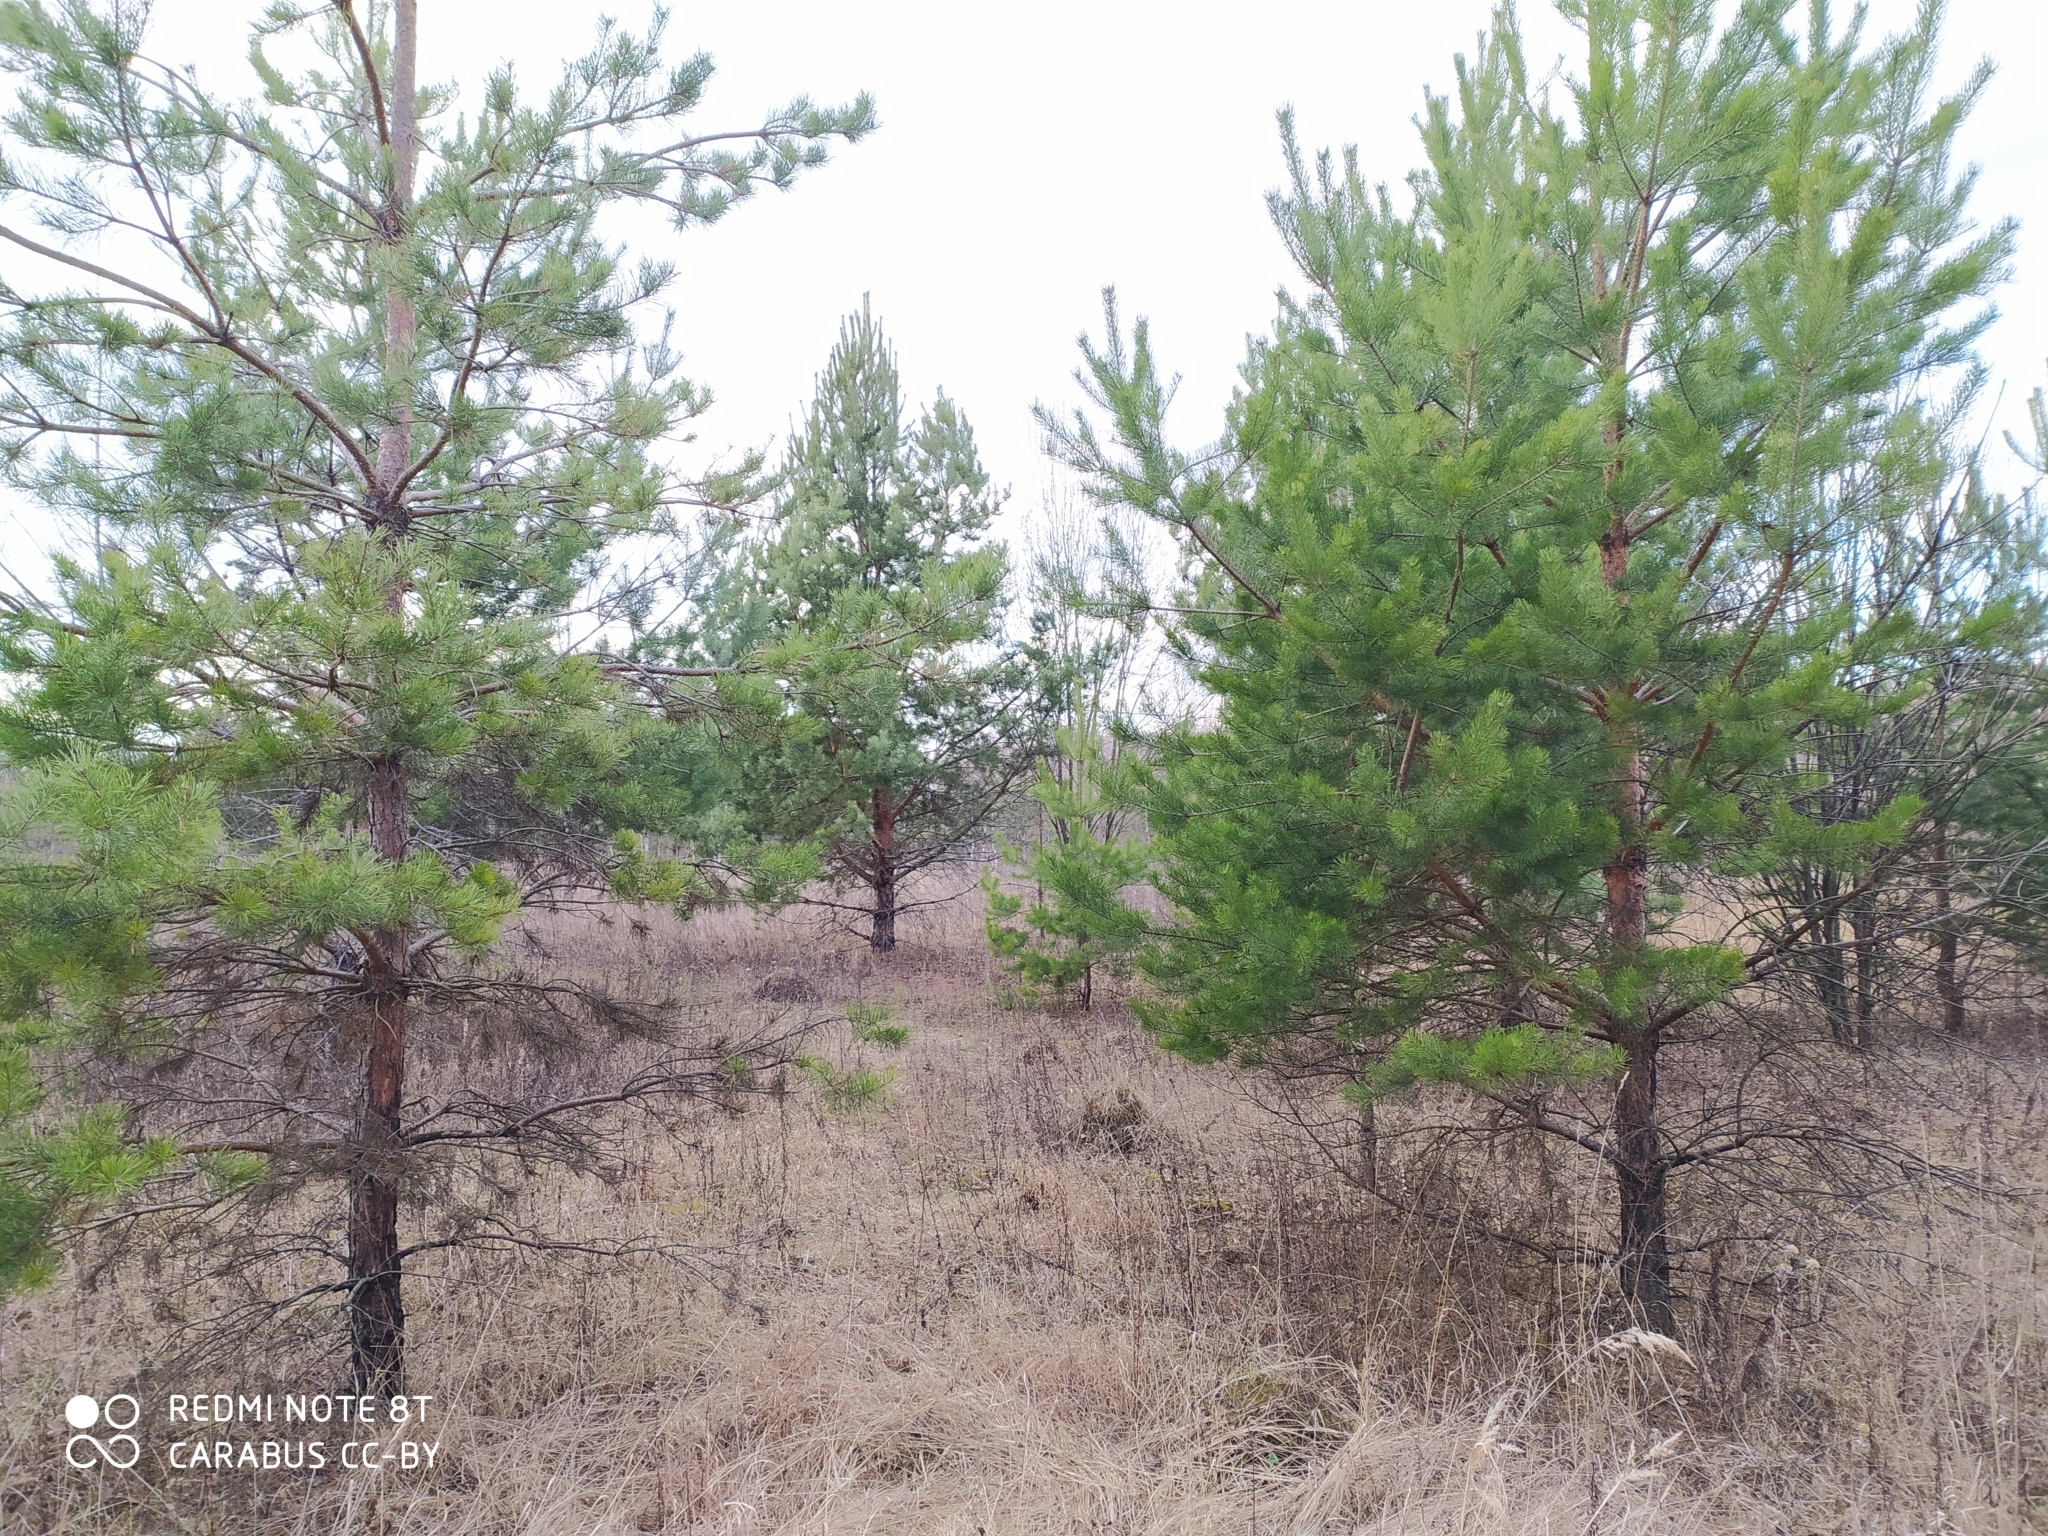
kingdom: Plantae
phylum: Tracheophyta
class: Pinopsida
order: Pinales
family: Pinaceae
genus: Pinus
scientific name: Pinus sylvestris
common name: Scots pine
